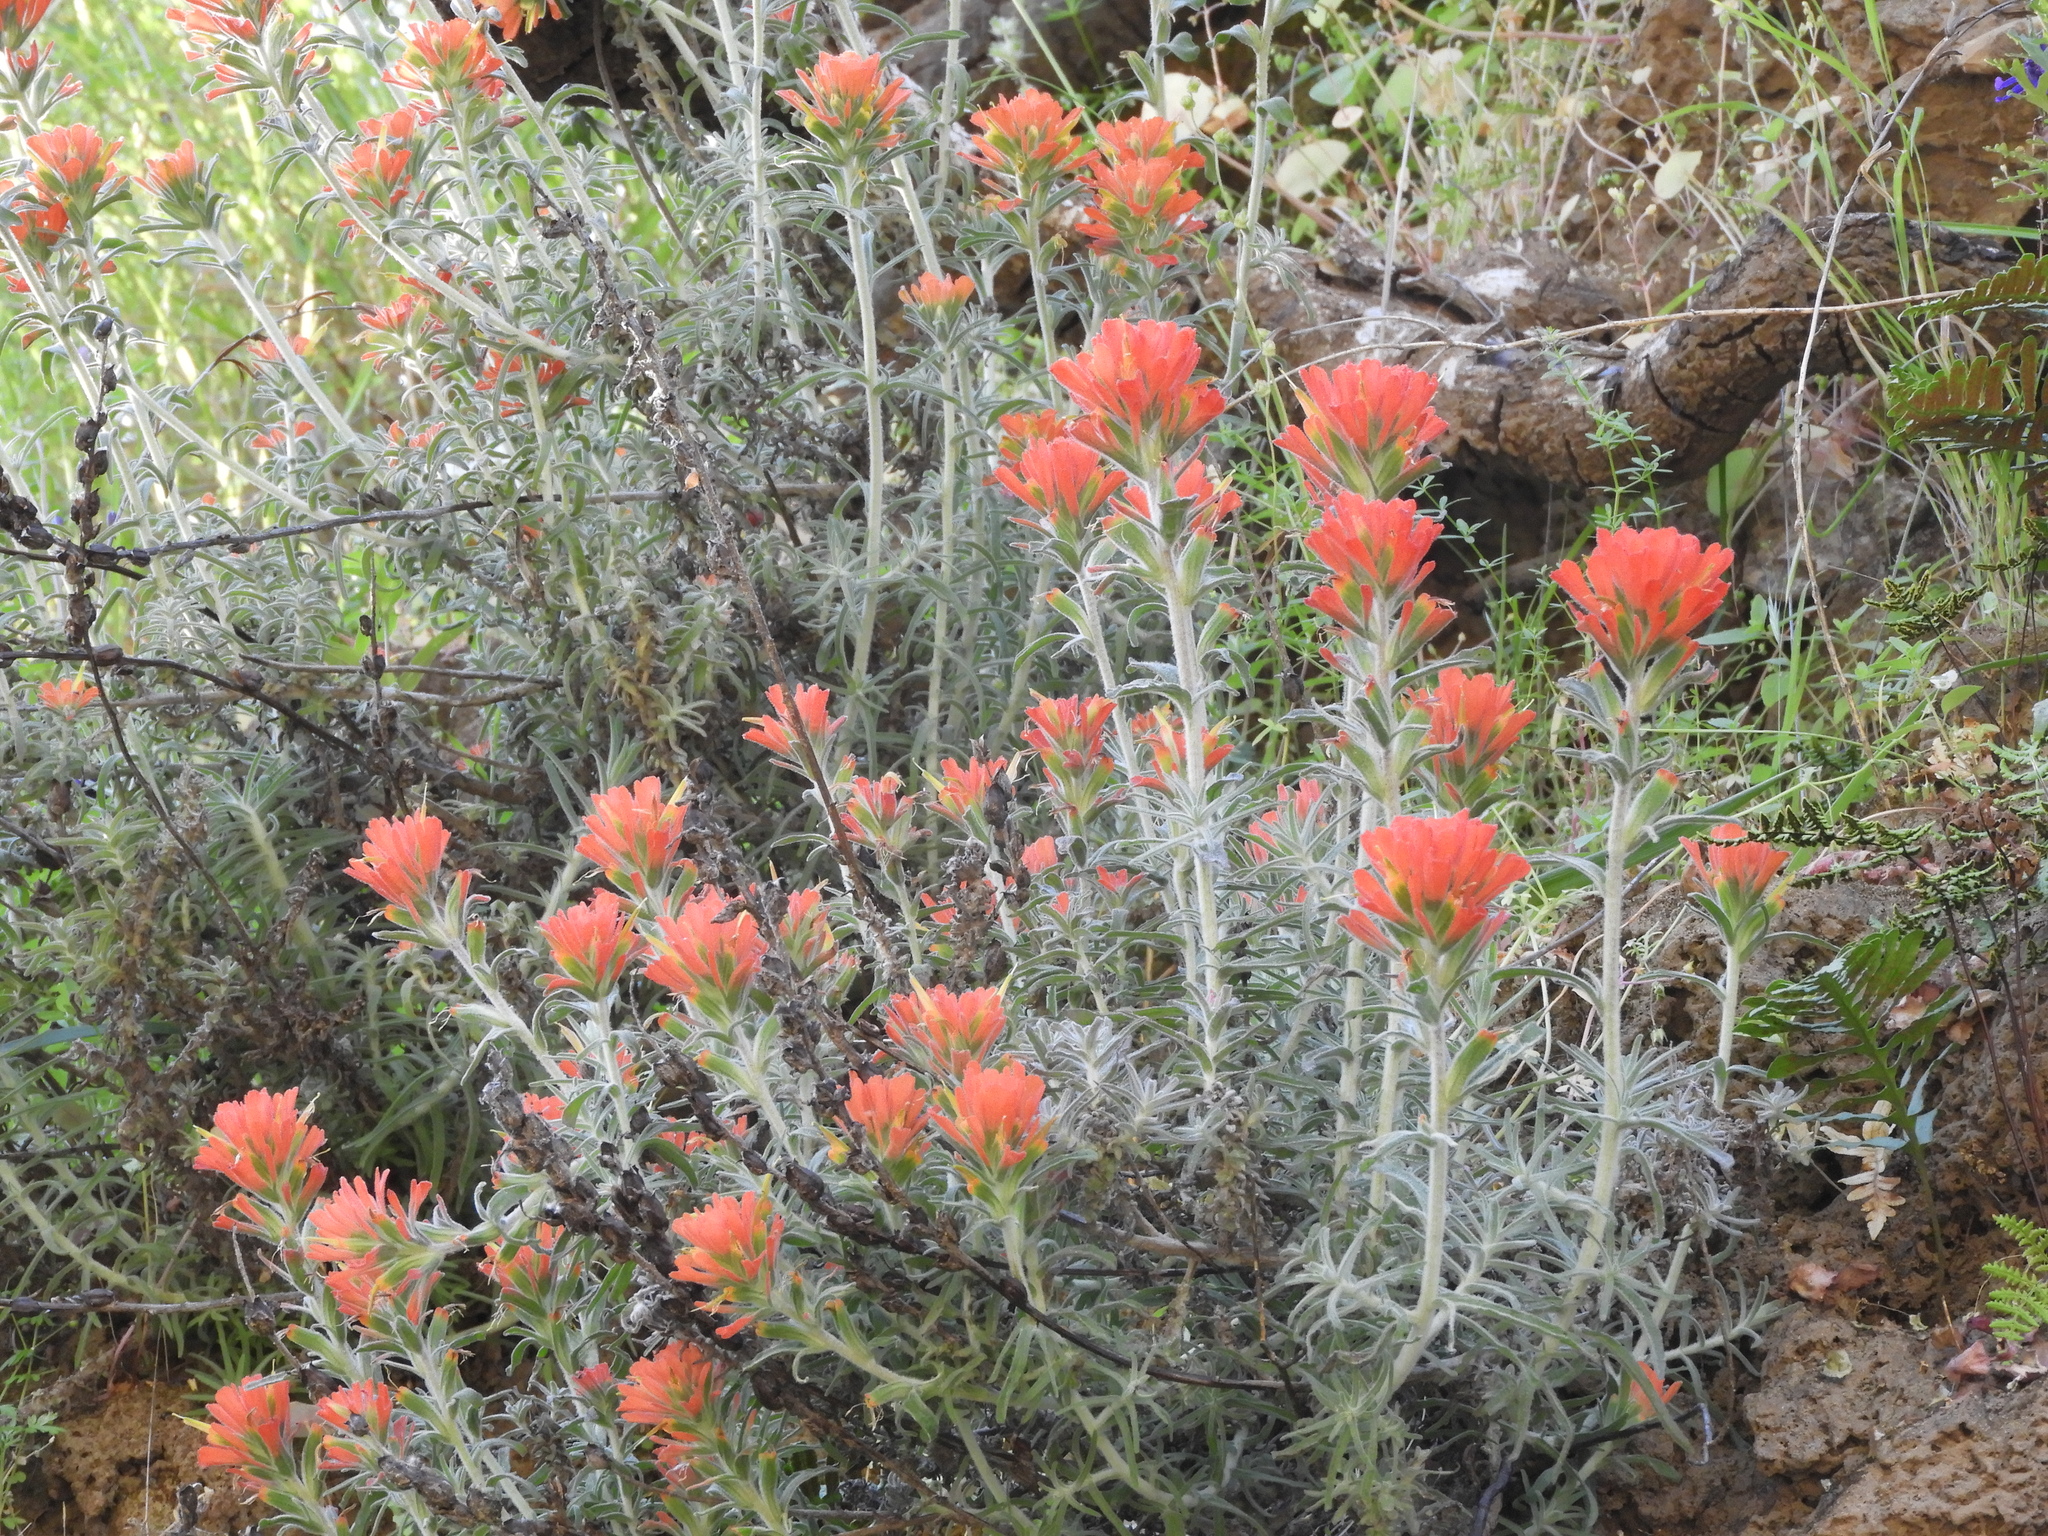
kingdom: Plantae
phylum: Tracheophyta
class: Magnoliopsida
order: Lamiales
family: Orobanchaceae
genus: Castilleja
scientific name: Castilleja foliolosa
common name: Woolly indian paintbrush
